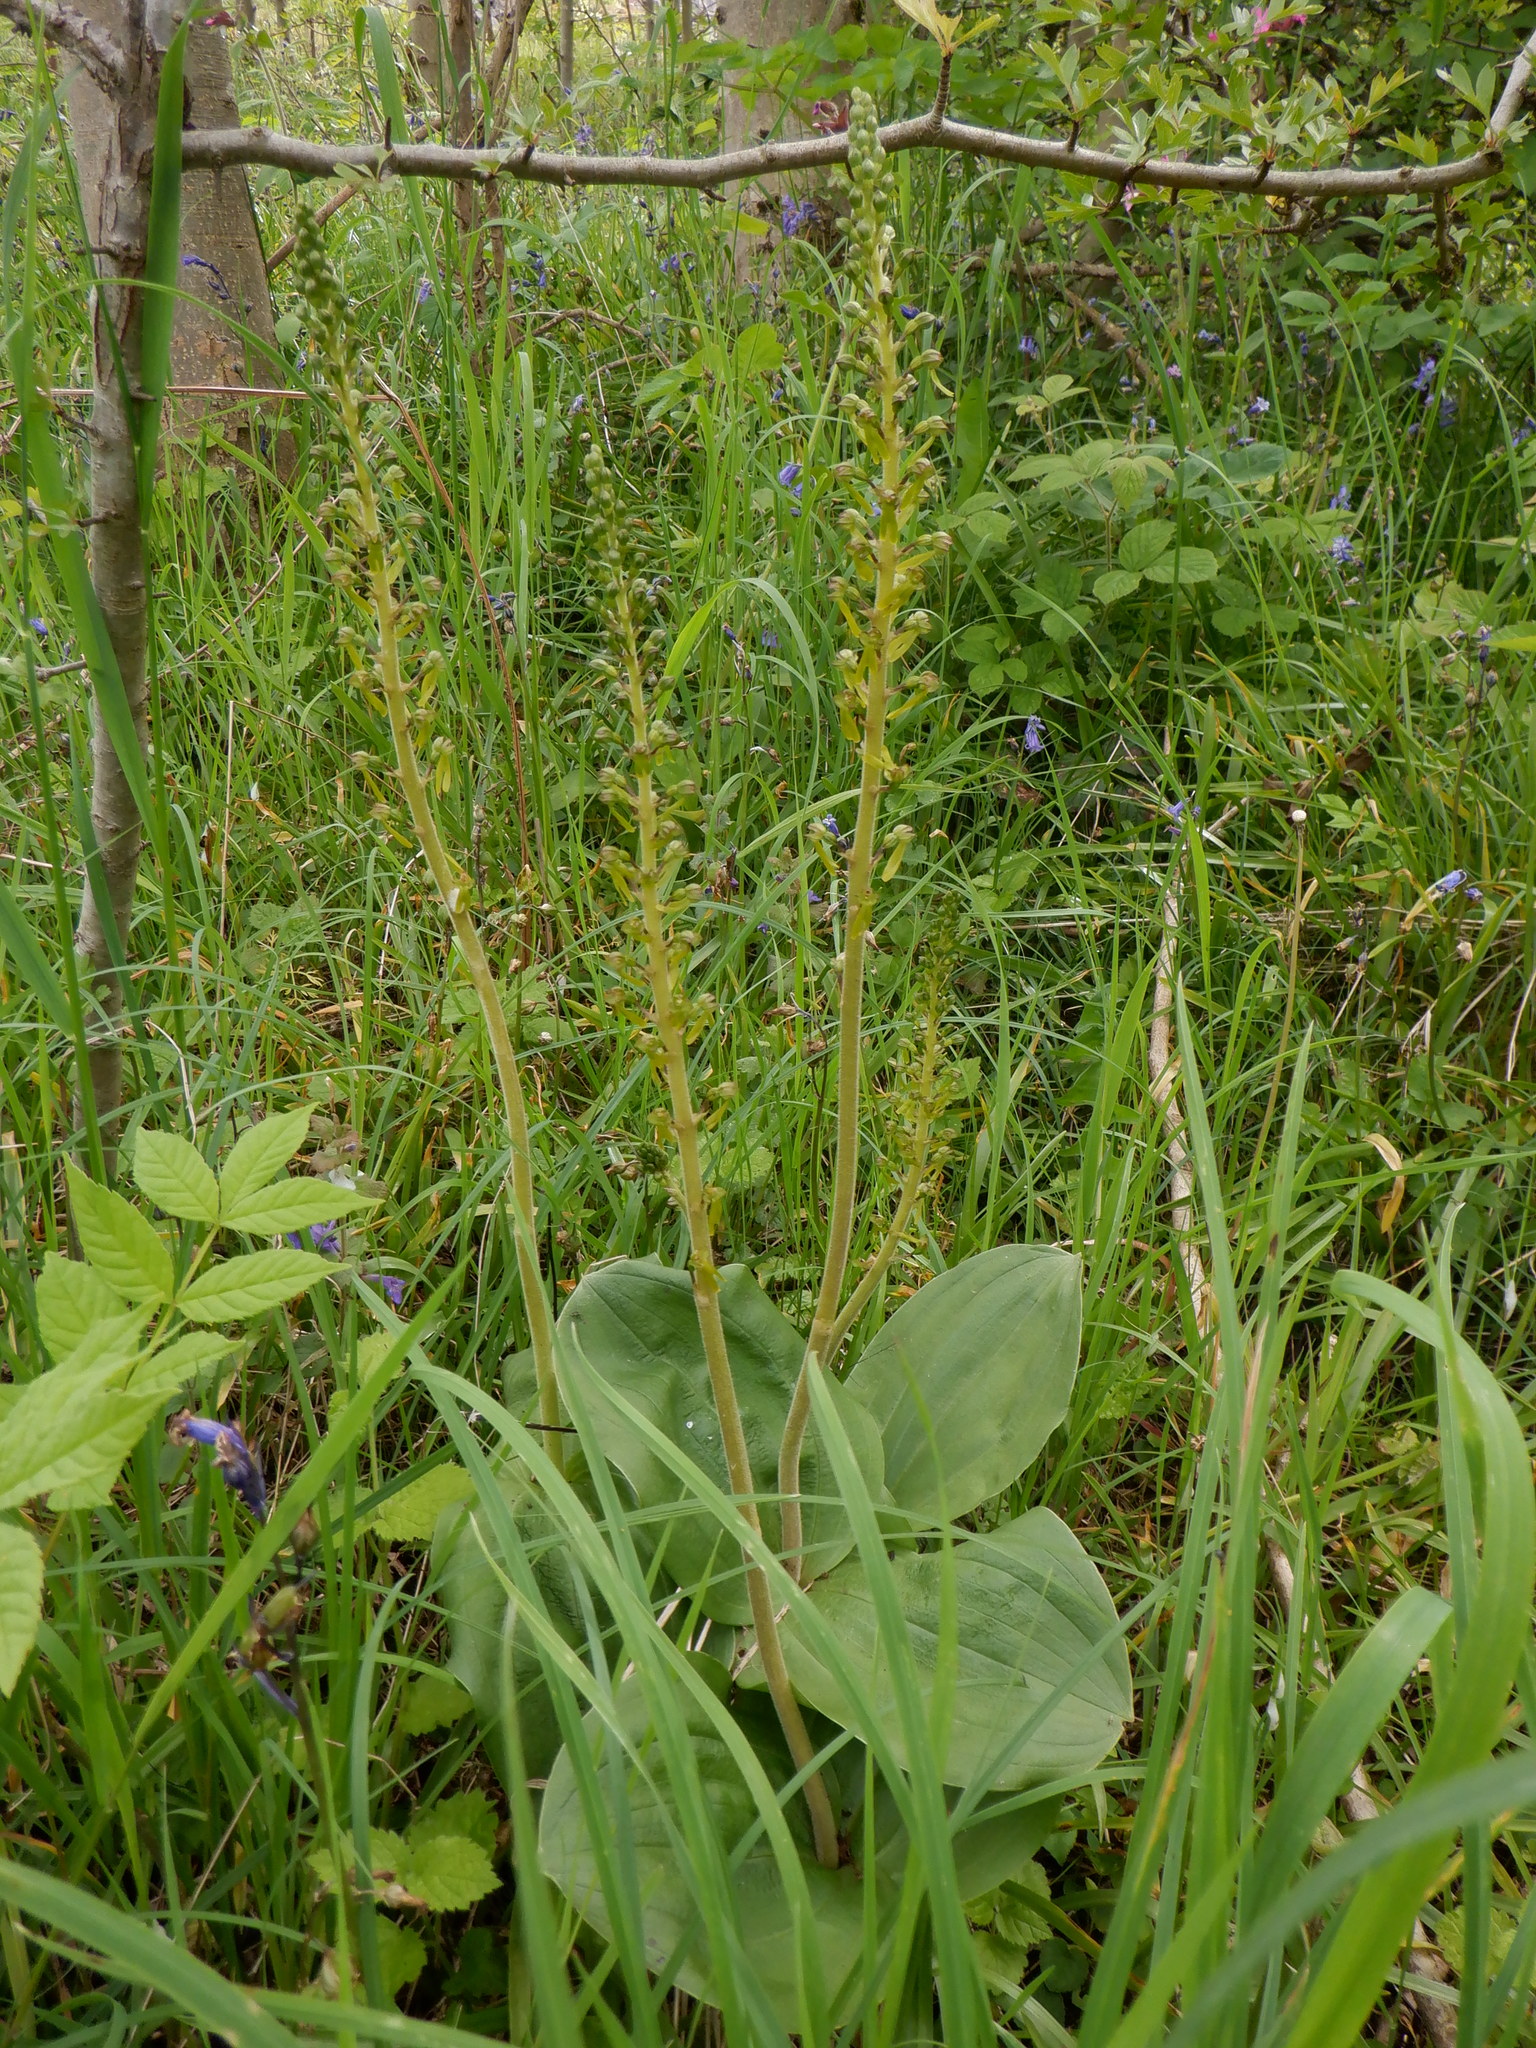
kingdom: Plantae
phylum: Tracheophyta
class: Liliopsida
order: Asparagales
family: Orchidaceae
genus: Neottia
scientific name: Neottia ovata
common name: Common twayblade
